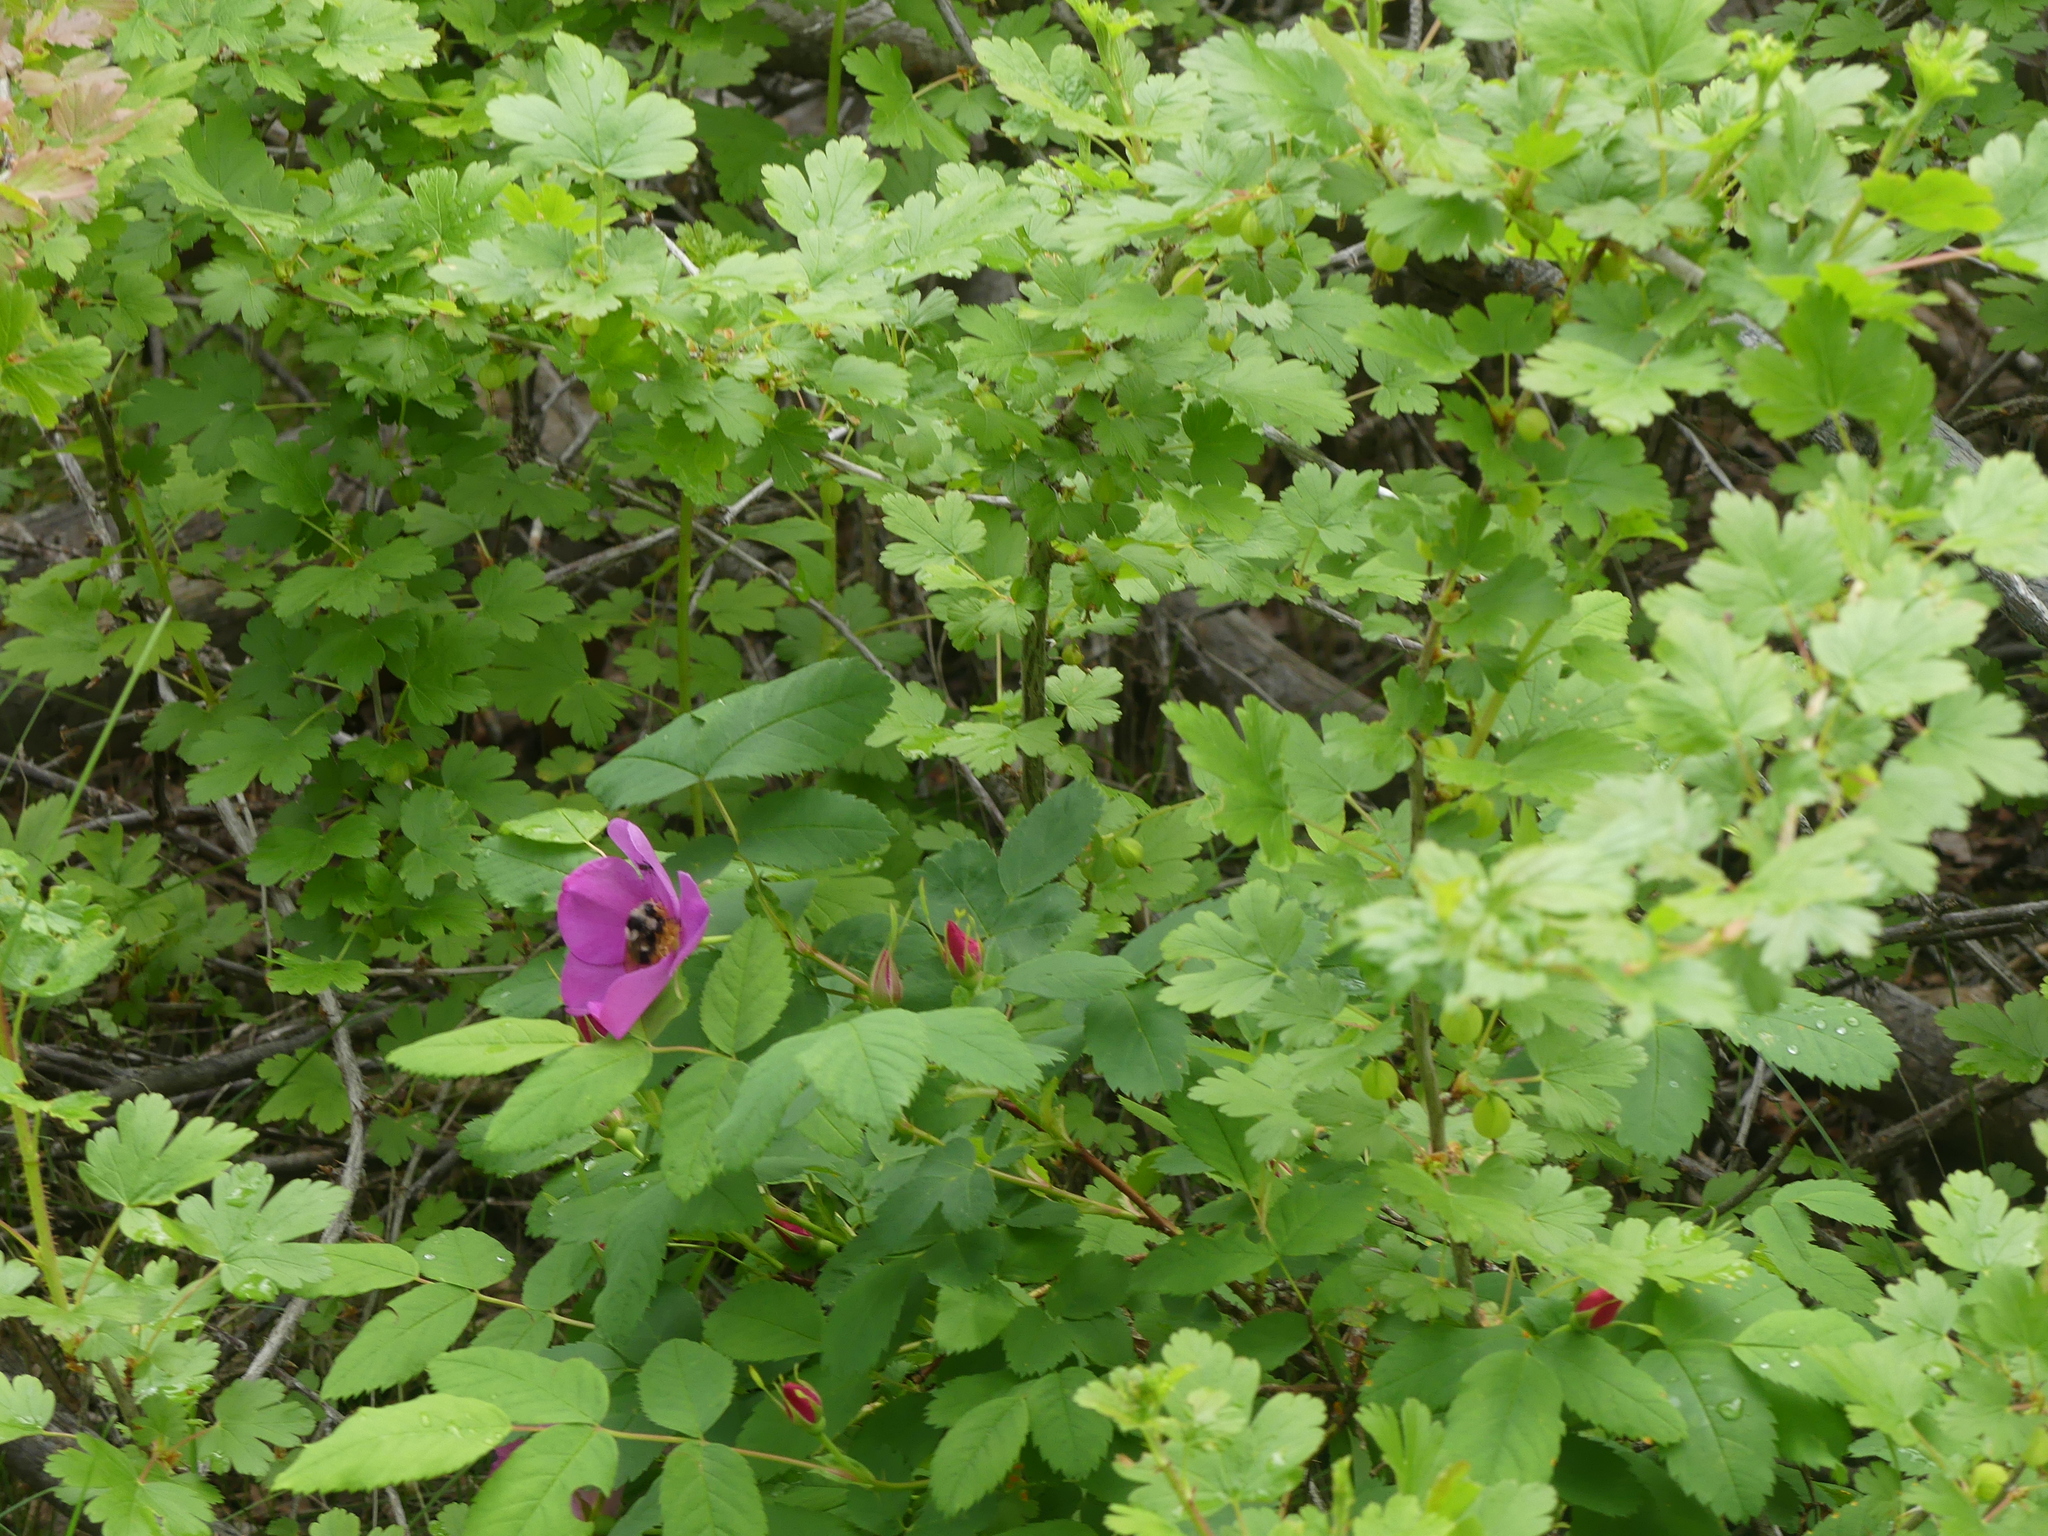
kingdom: Animalia
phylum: Arthropoda
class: Insecta
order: Hymenoptera
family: Apidae
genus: Bombus
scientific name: Bombus vancouverensis
